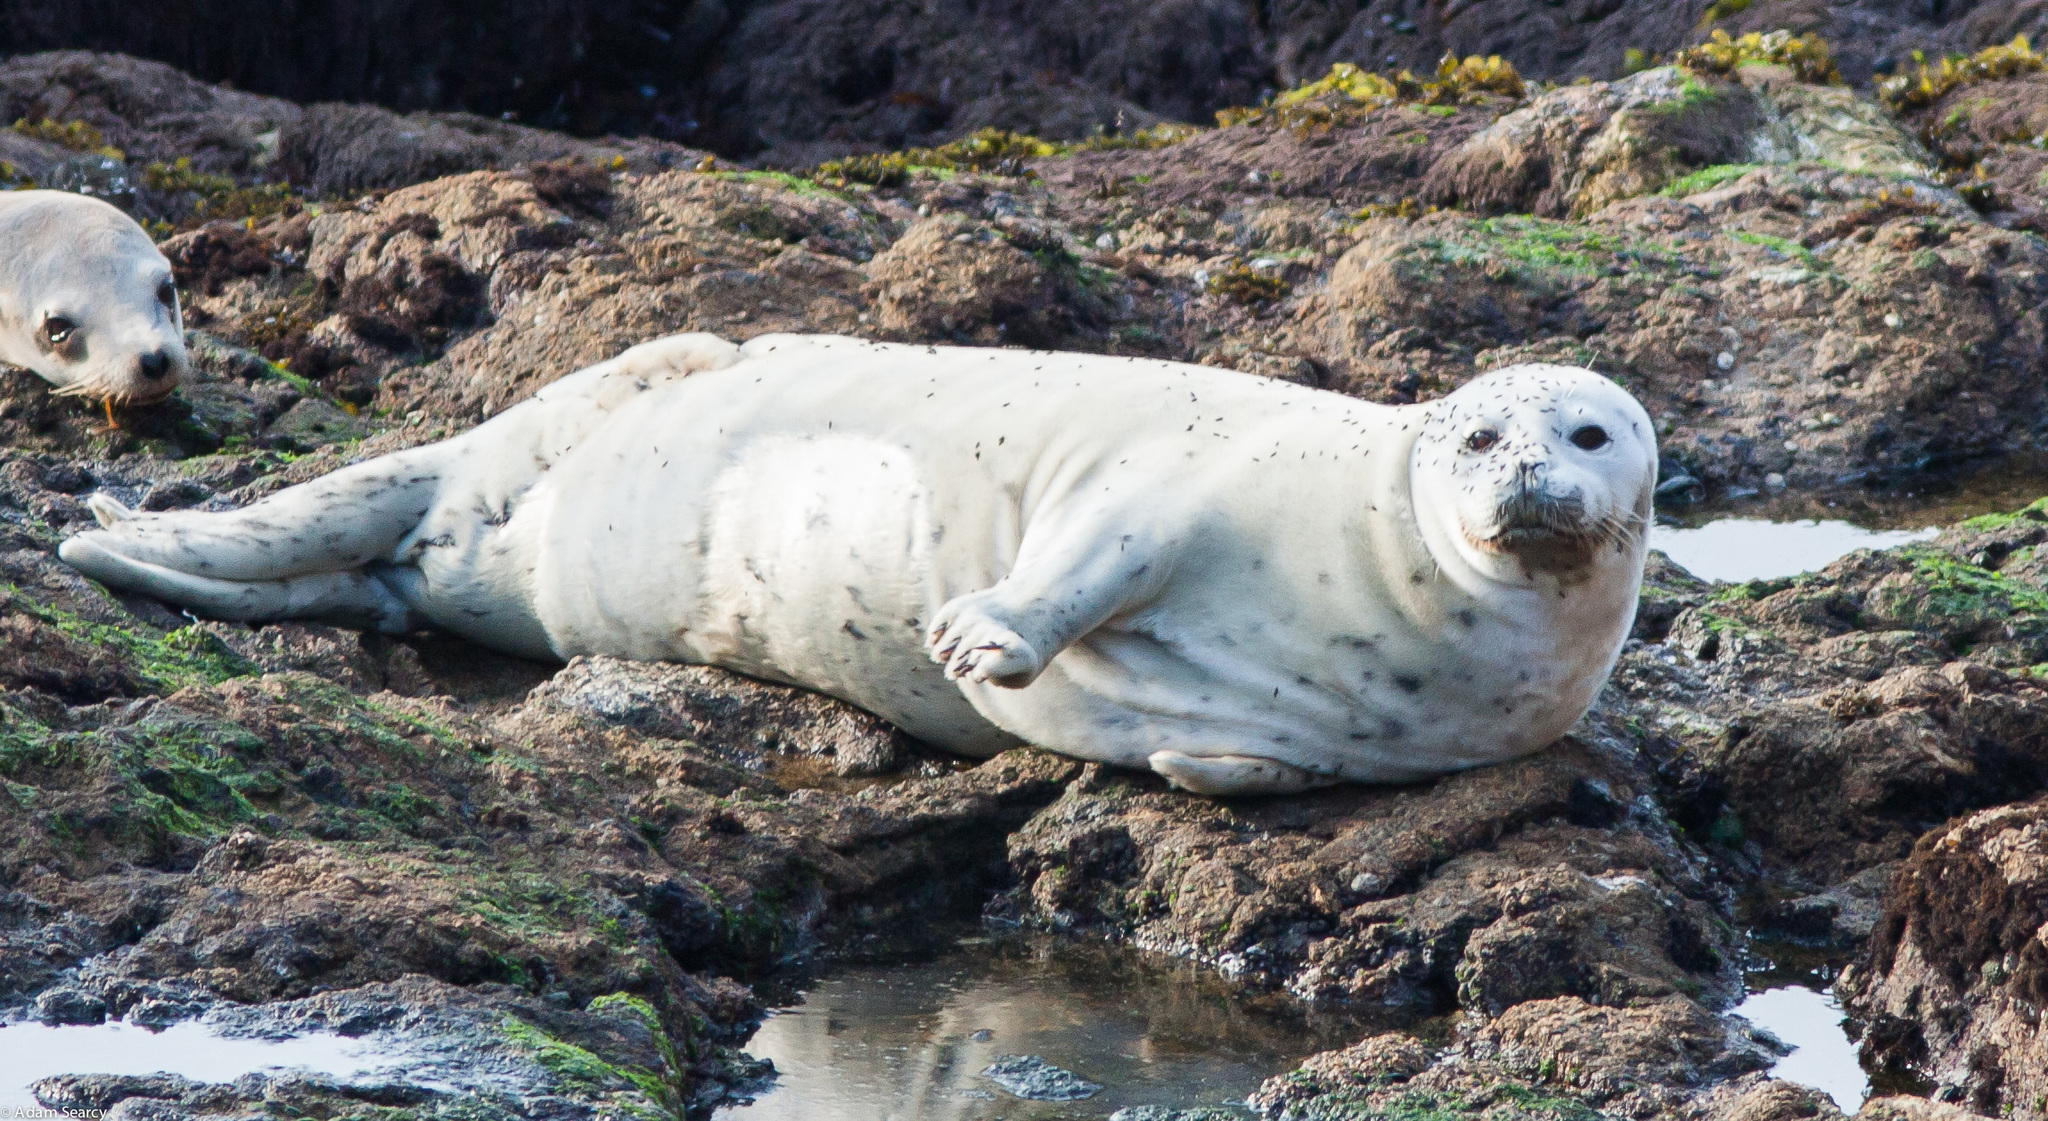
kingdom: Animalia
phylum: Chordata
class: Mammalia
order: Carnivora
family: Phocidae
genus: Phoca
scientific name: Phoca vitulina
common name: Harbor seal
